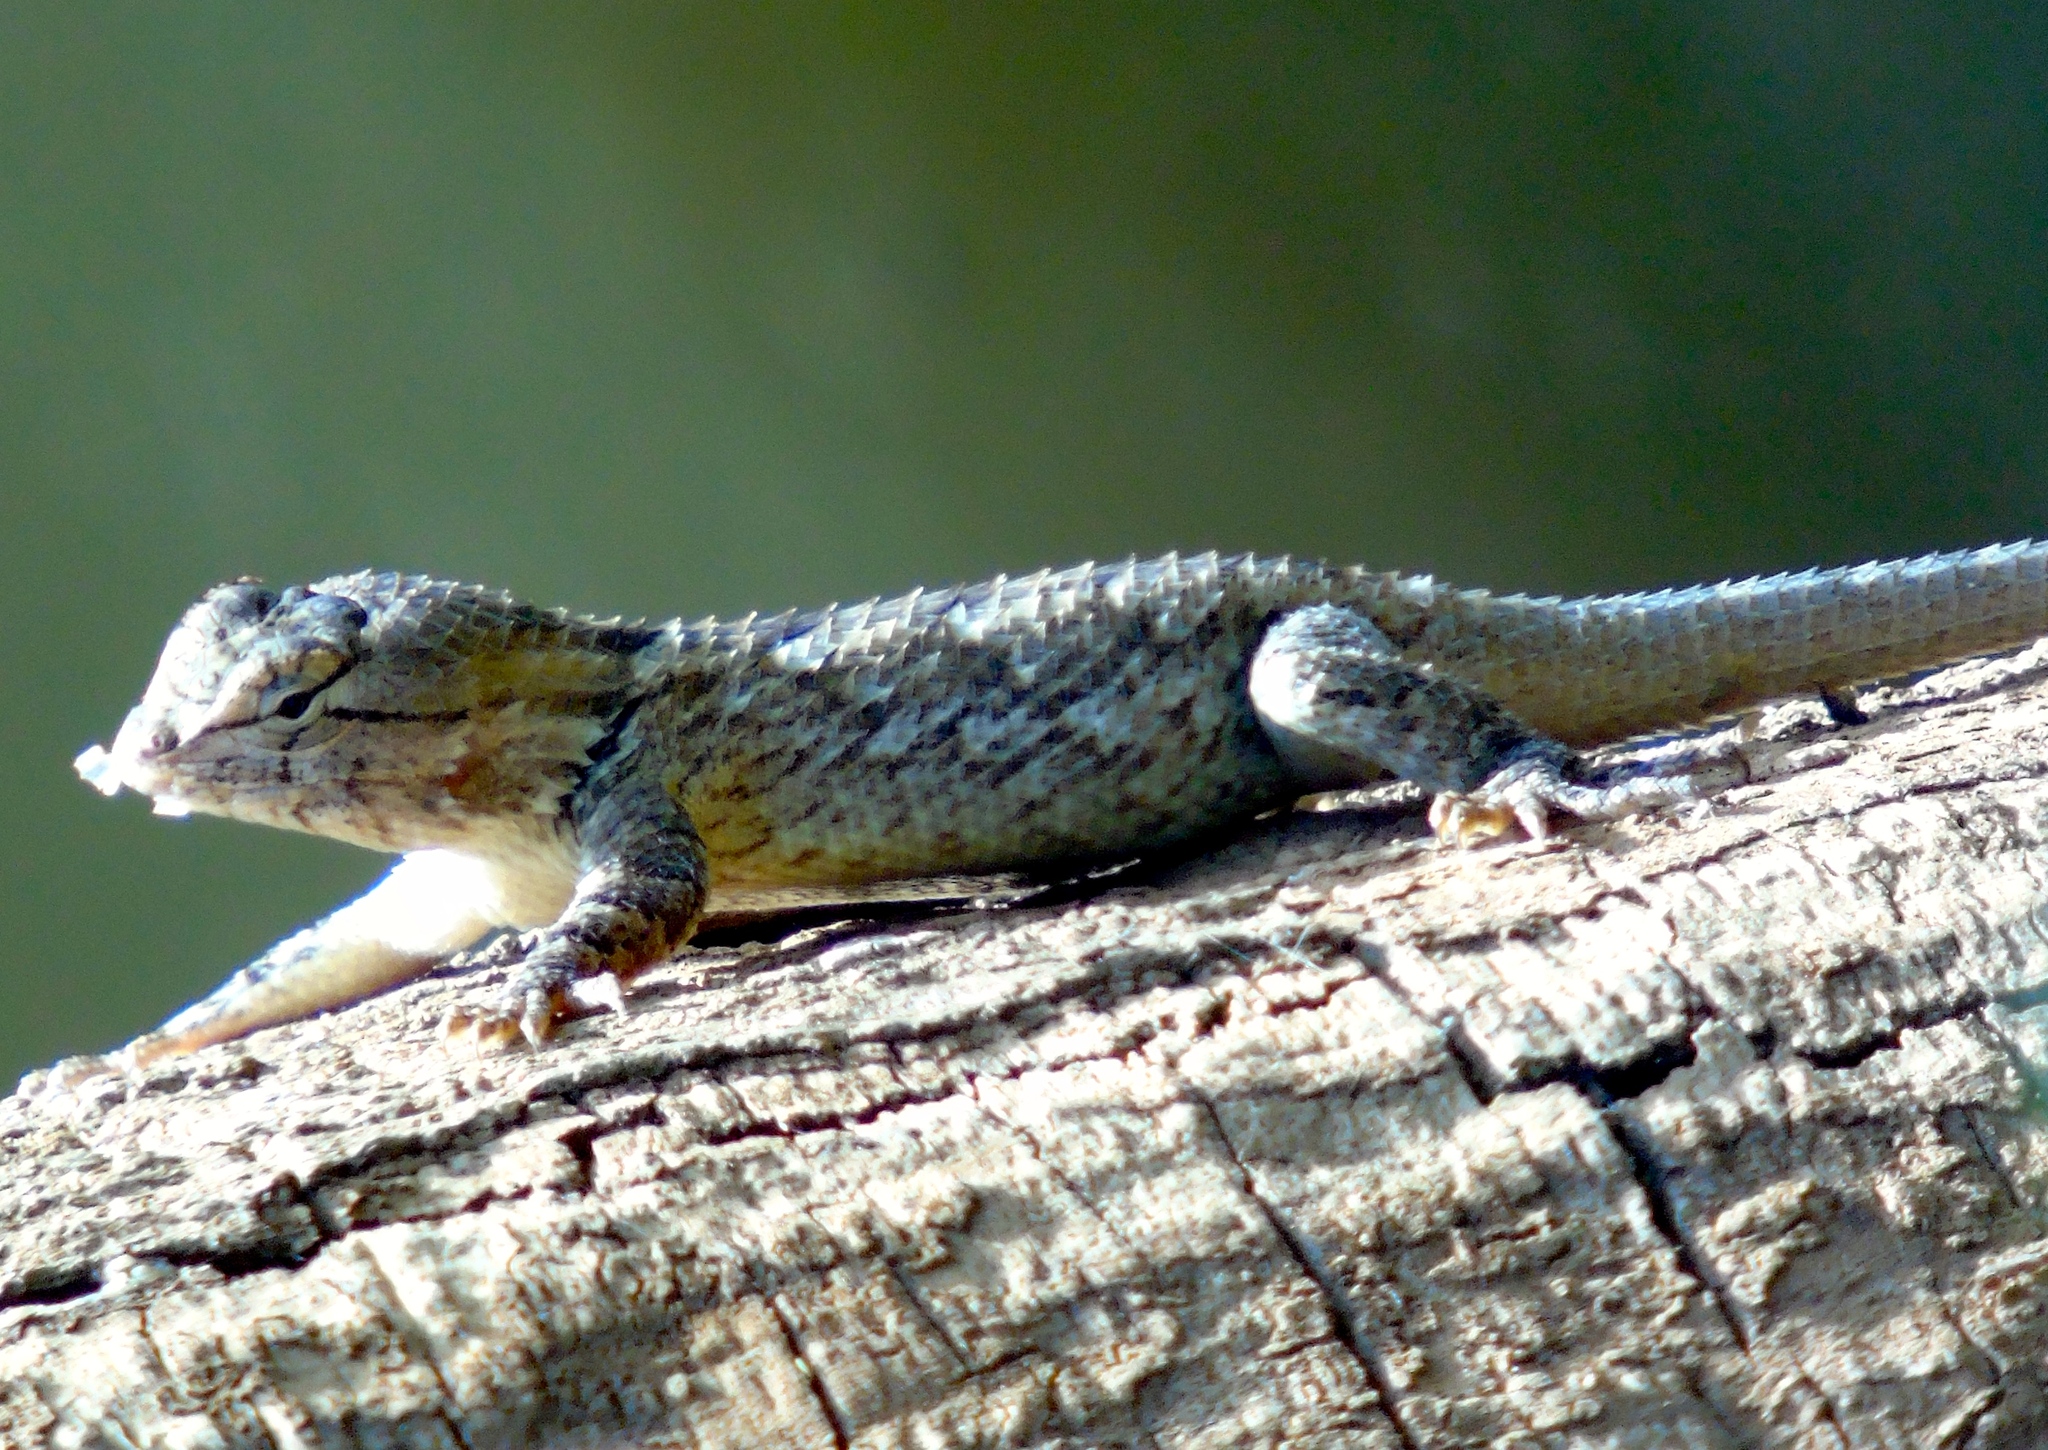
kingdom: Animalia
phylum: Chordata
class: Squamata
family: Phrynosomatidae
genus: Sceloporus
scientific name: Sceloporus clarkii
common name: Clark's spiny lizard
